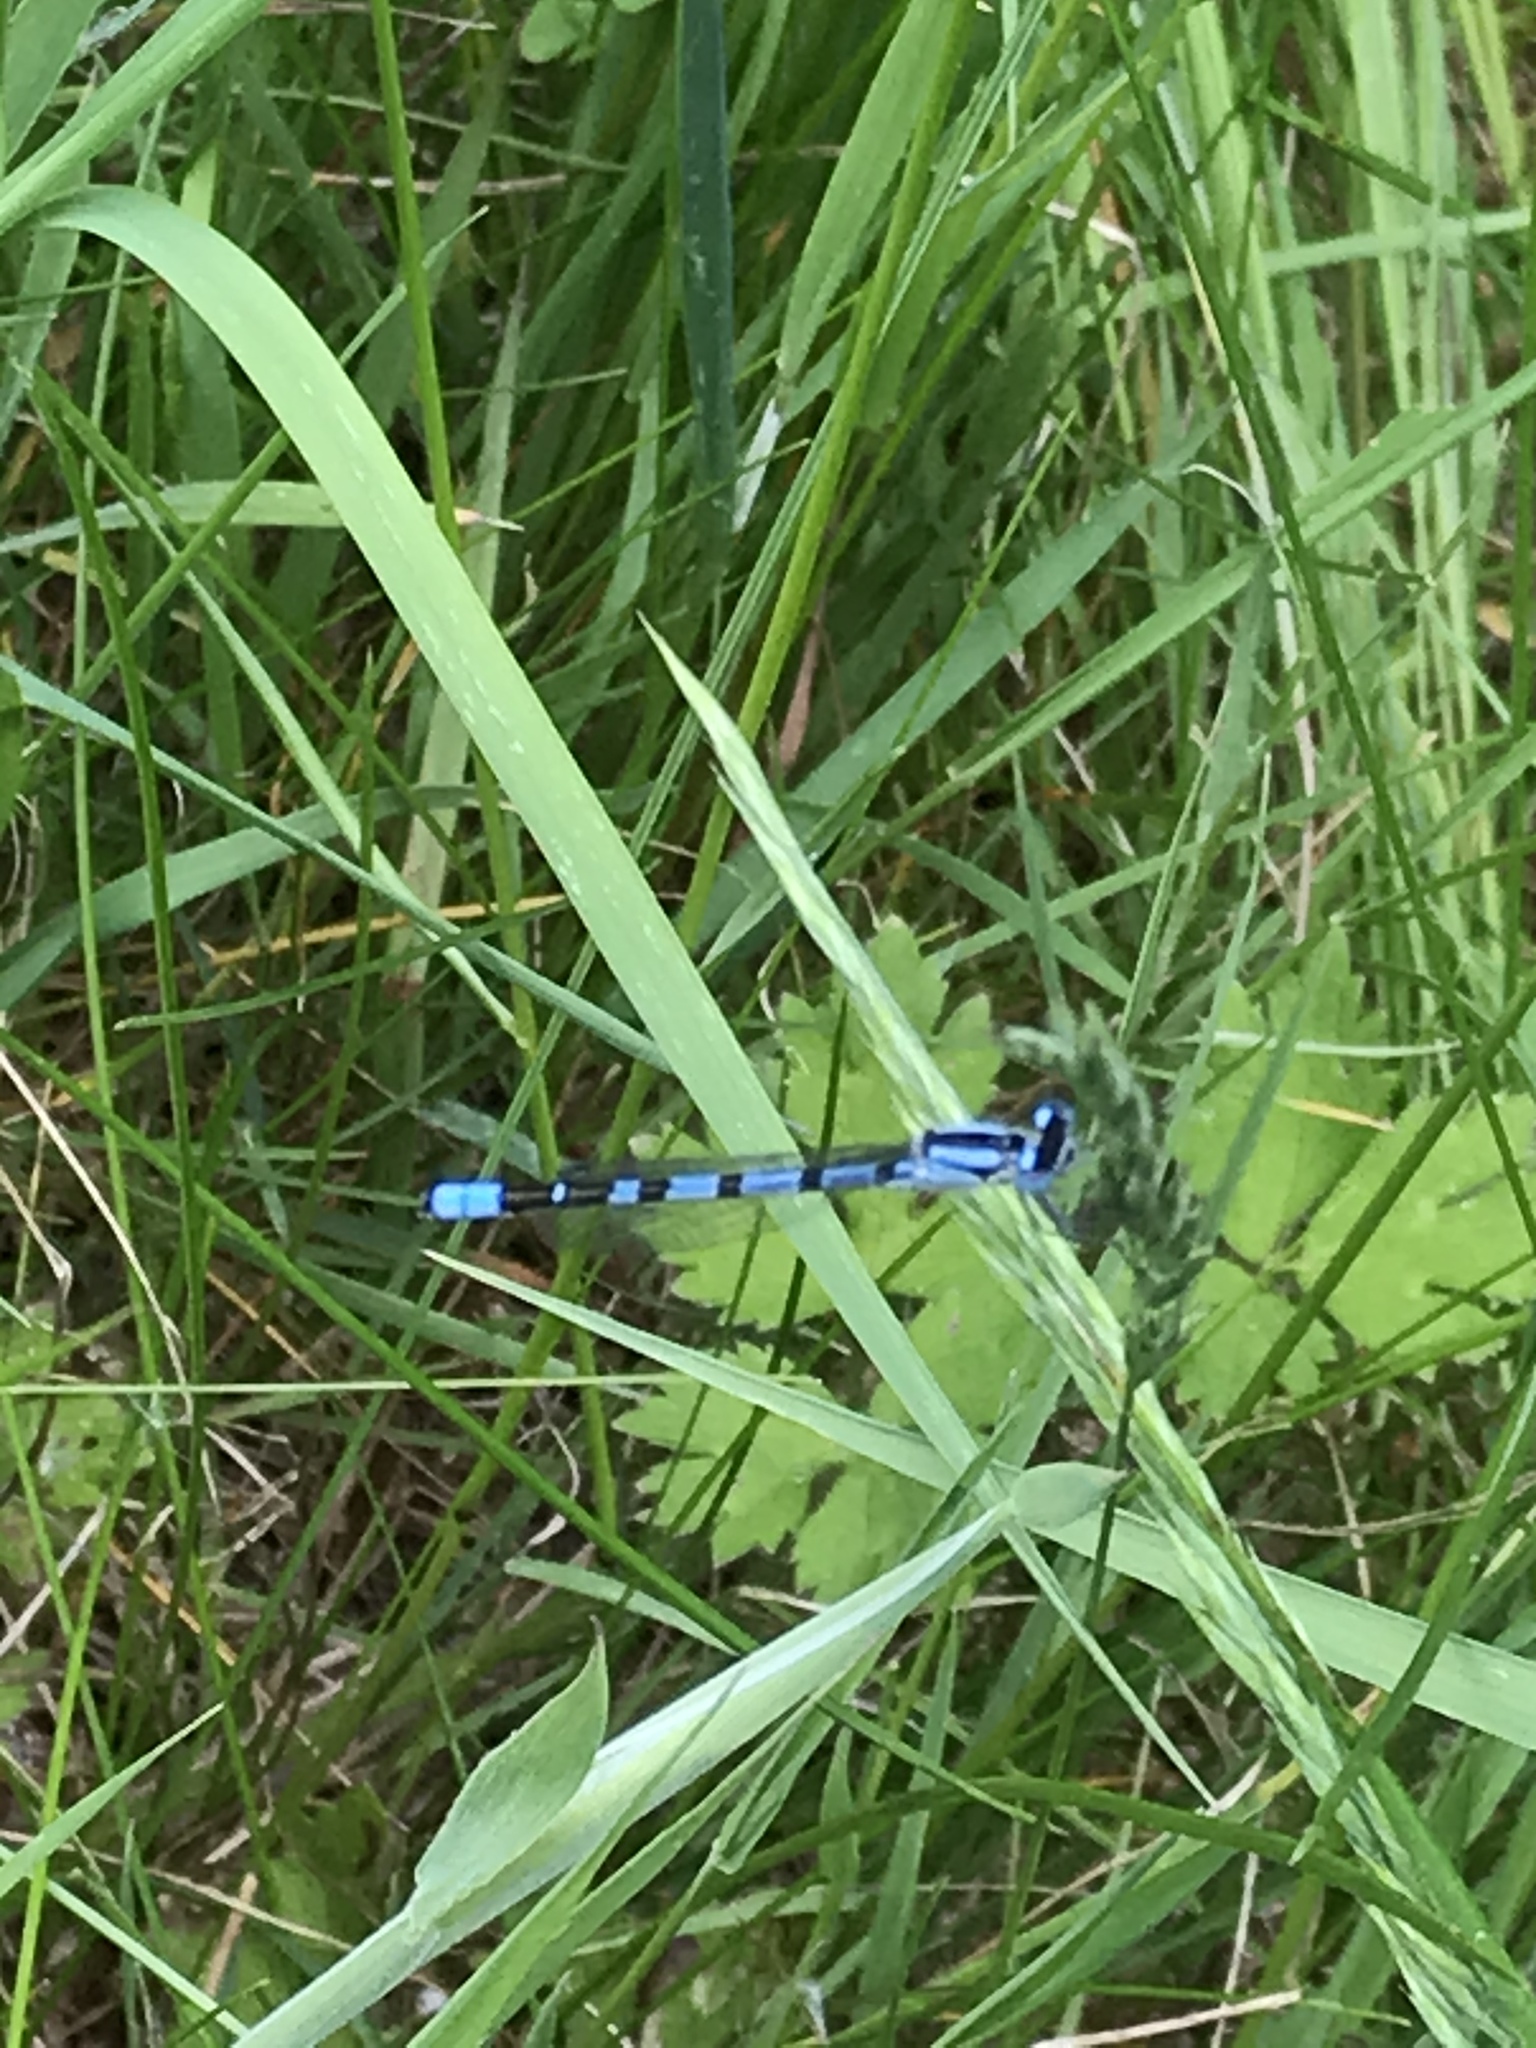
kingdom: Animalia
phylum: Arthropoda
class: Insecta
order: Odonata
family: Coenagrionidae
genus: Enallagma
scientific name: Enallagma cyathigerum
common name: Common blue damselfly
